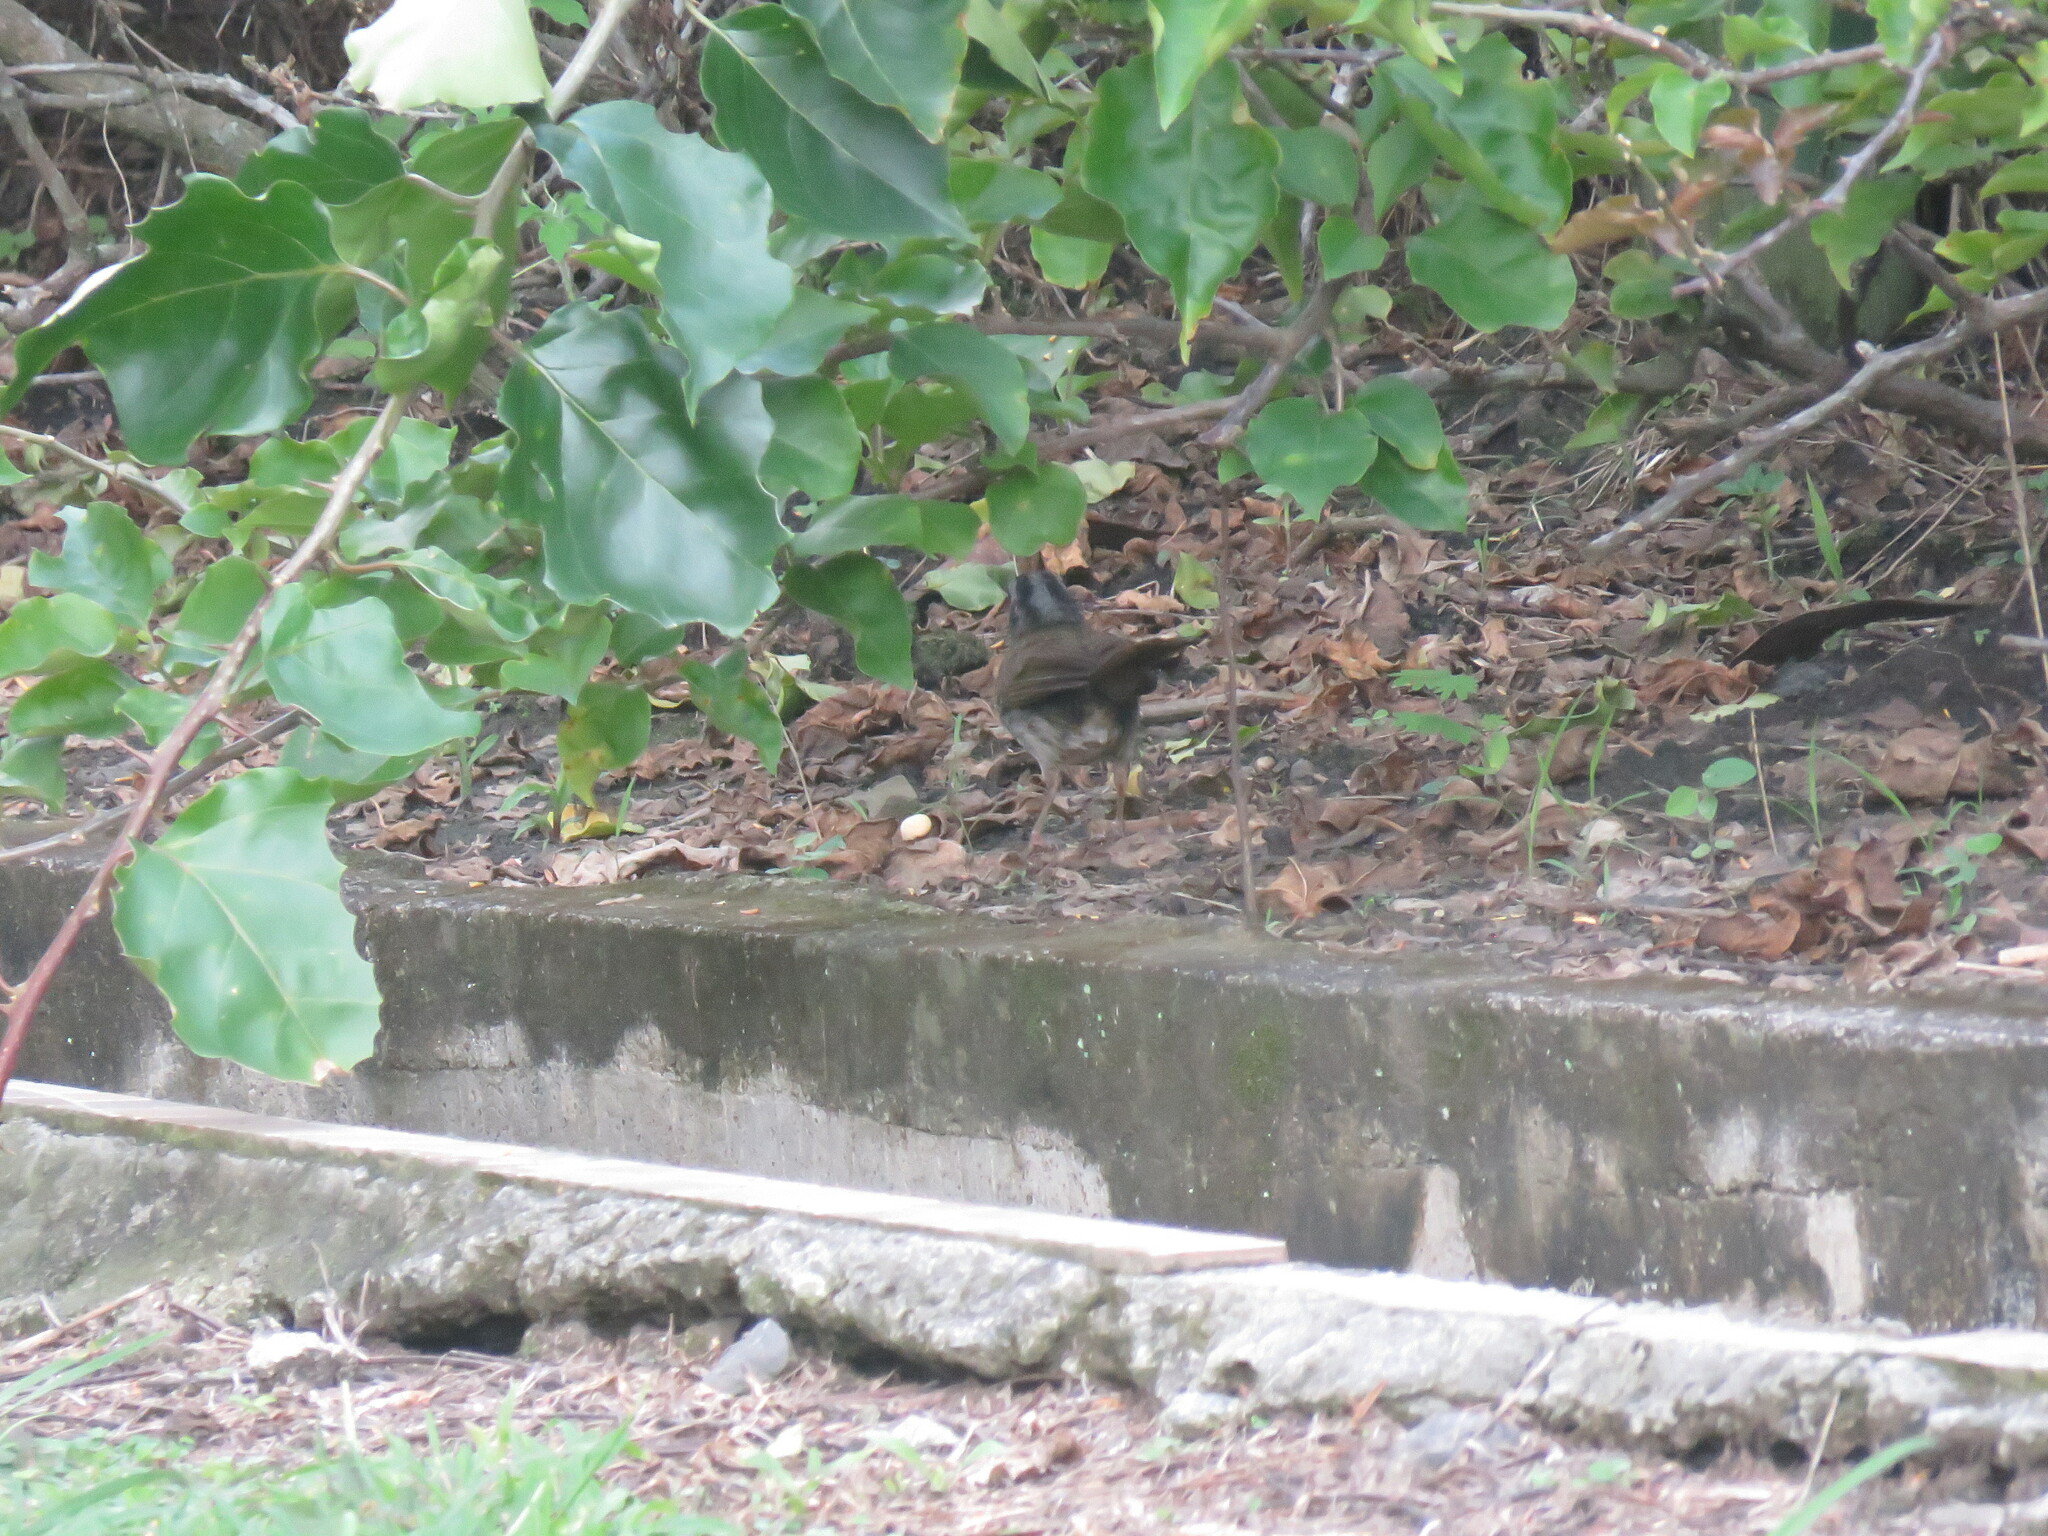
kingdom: Animalia
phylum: Chordata
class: Aves
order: Passeriformes
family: Passerellidae
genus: Arremonops
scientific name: Arremonops conirostris
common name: Black-striped sparrow
